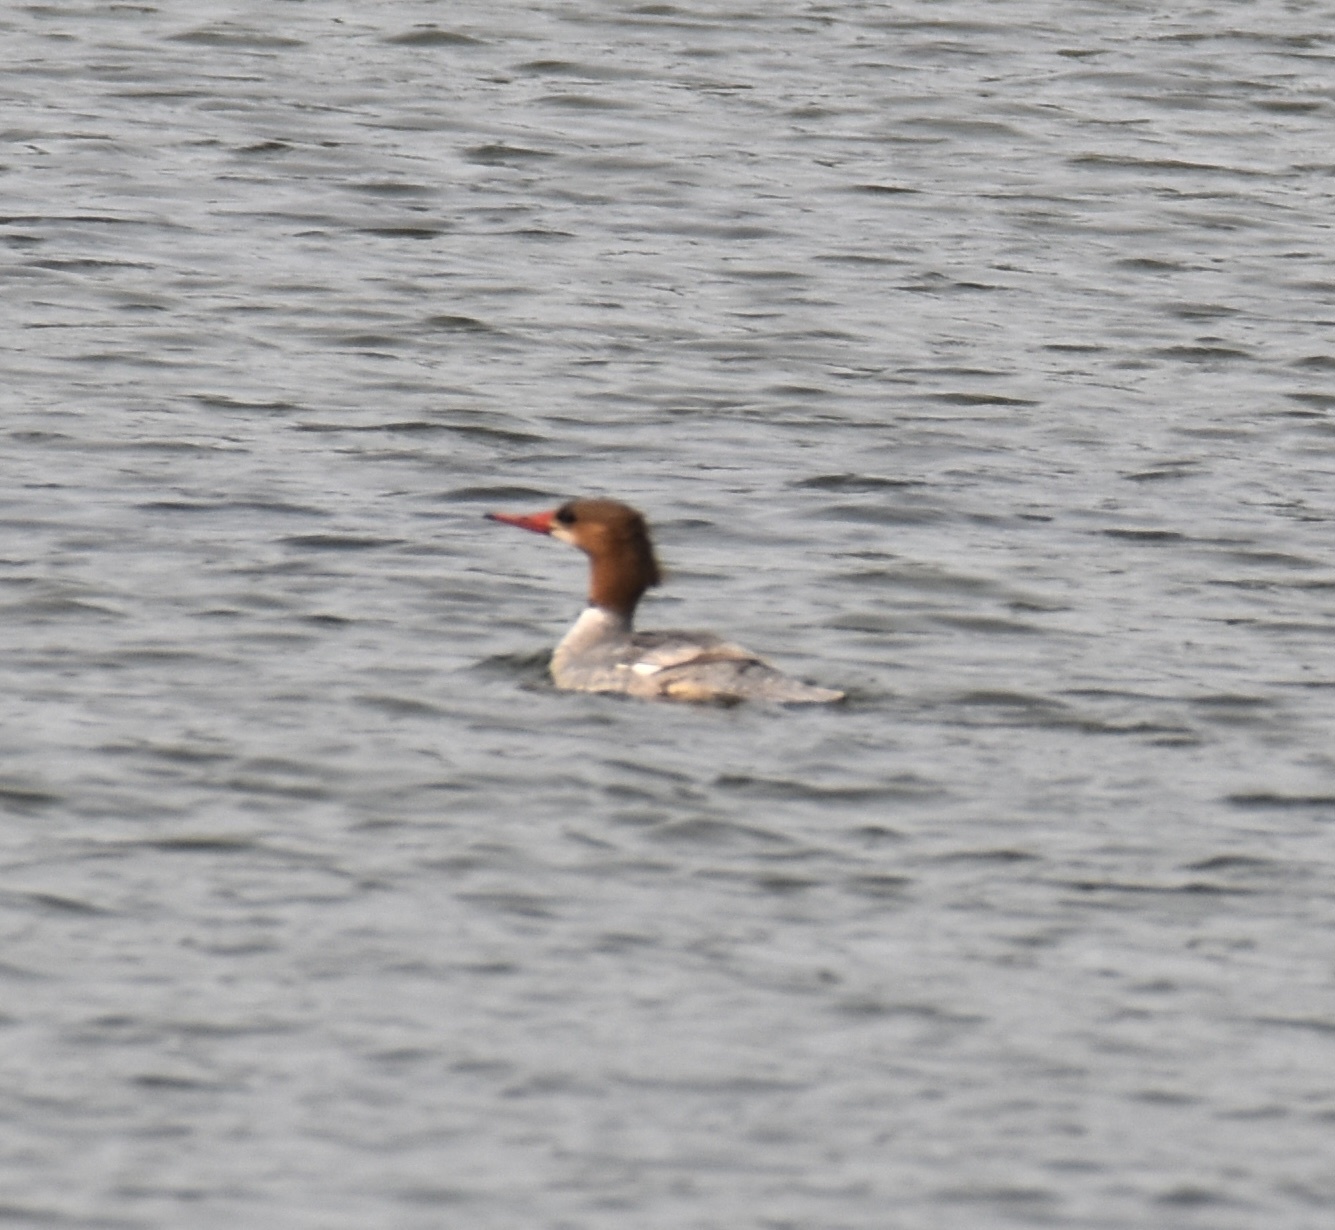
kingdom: Animalia
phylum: Chordata
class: Aves
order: Anseriformes
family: Anatidae
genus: Mergus
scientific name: Mergus merganser
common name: Common merganser
